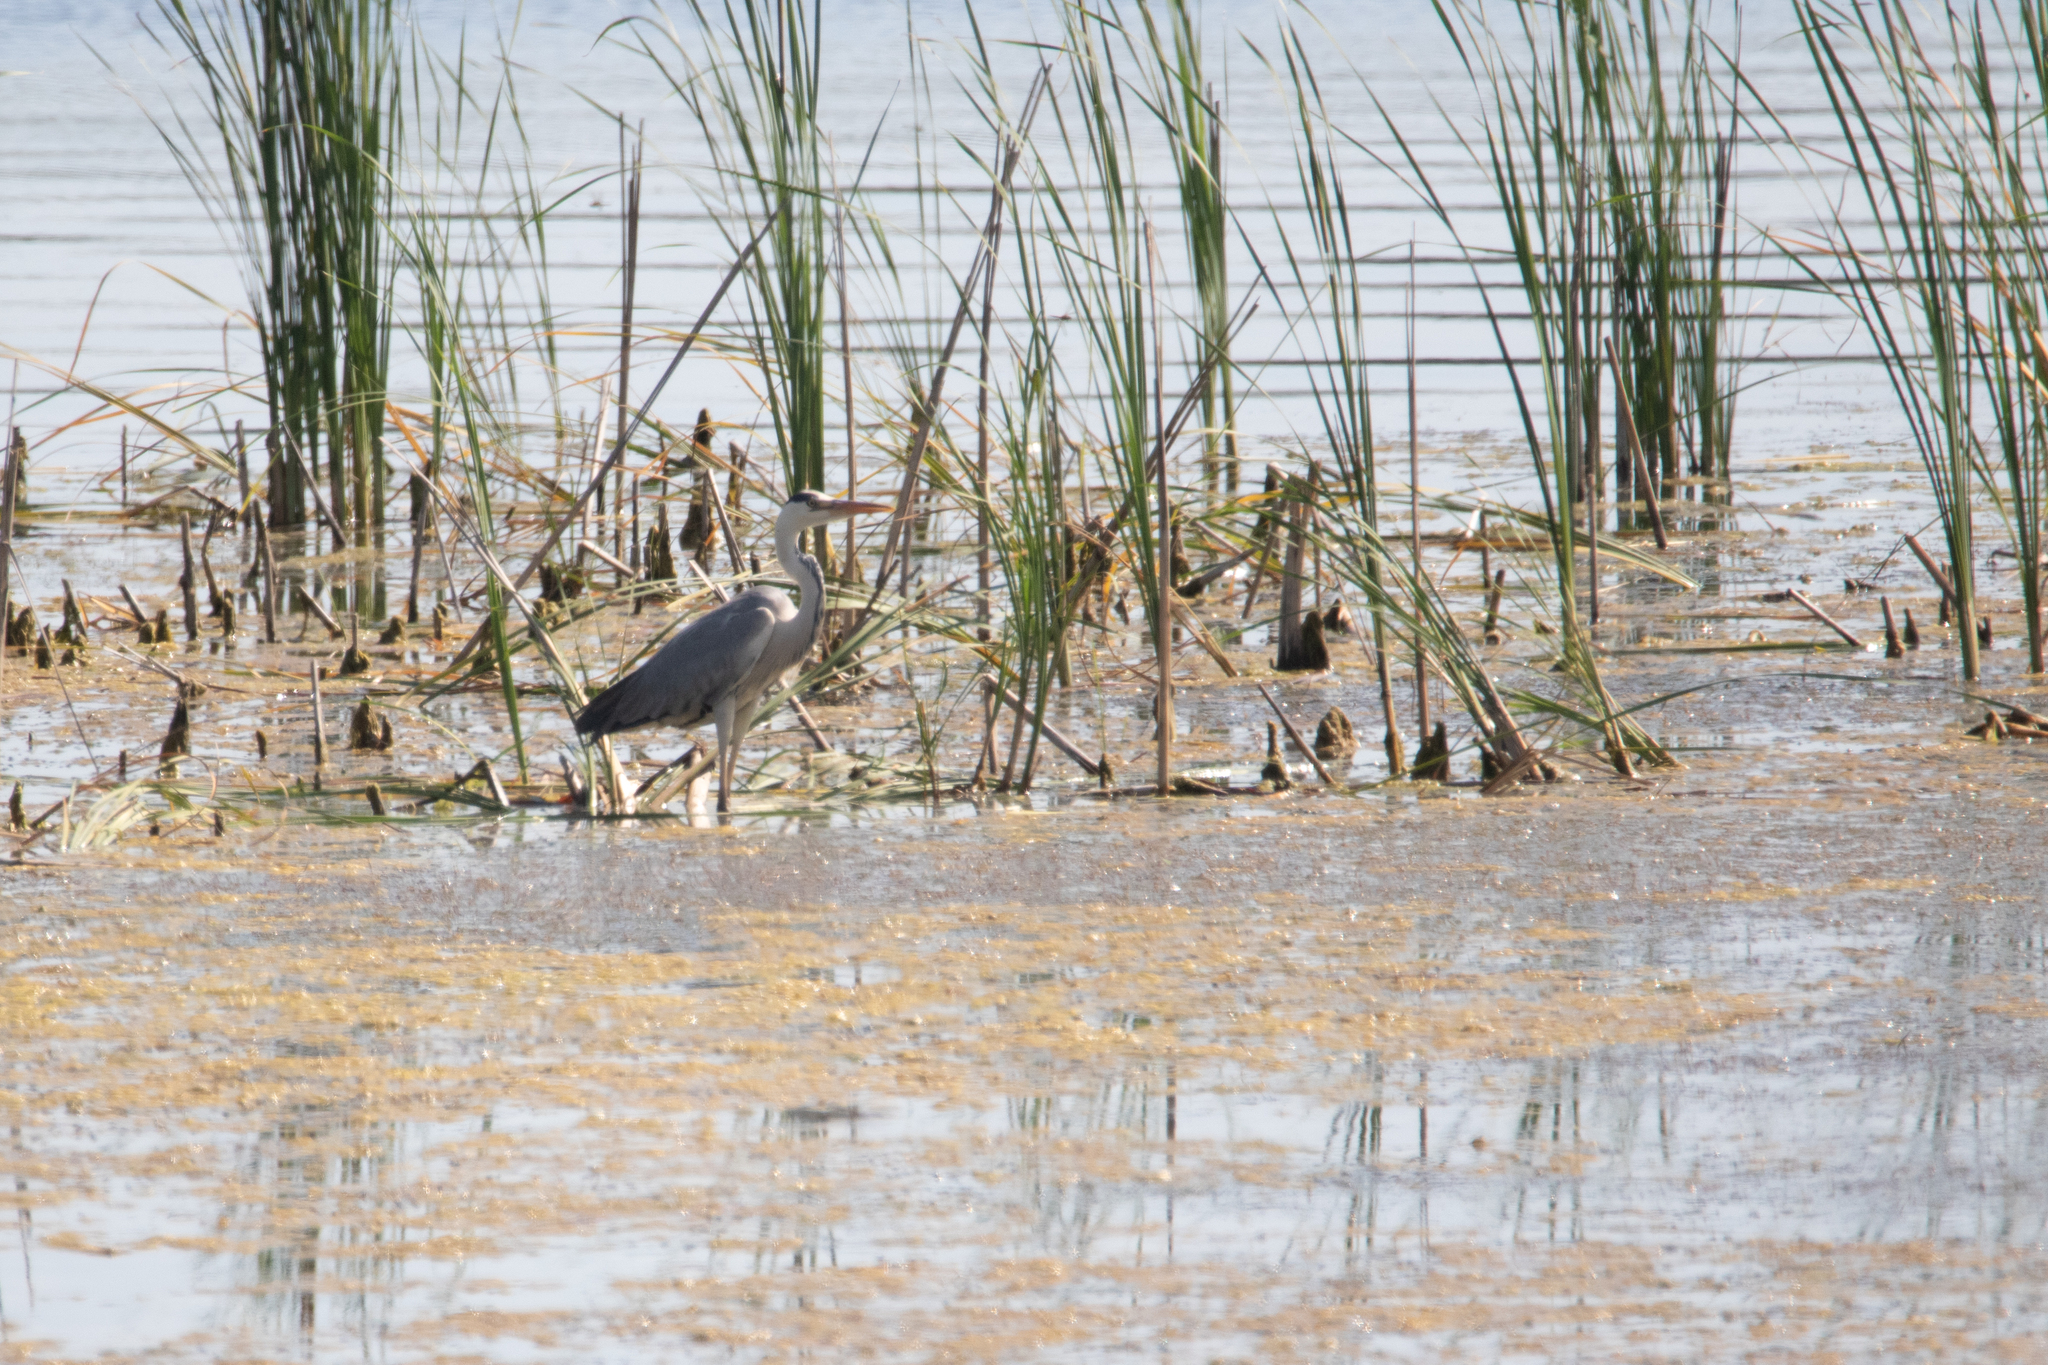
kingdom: Animalia
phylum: Chordata
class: Aves
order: Pelecaniformes
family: Ardeidae
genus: Ardea
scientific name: Ardea cinerea
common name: Grey heron
